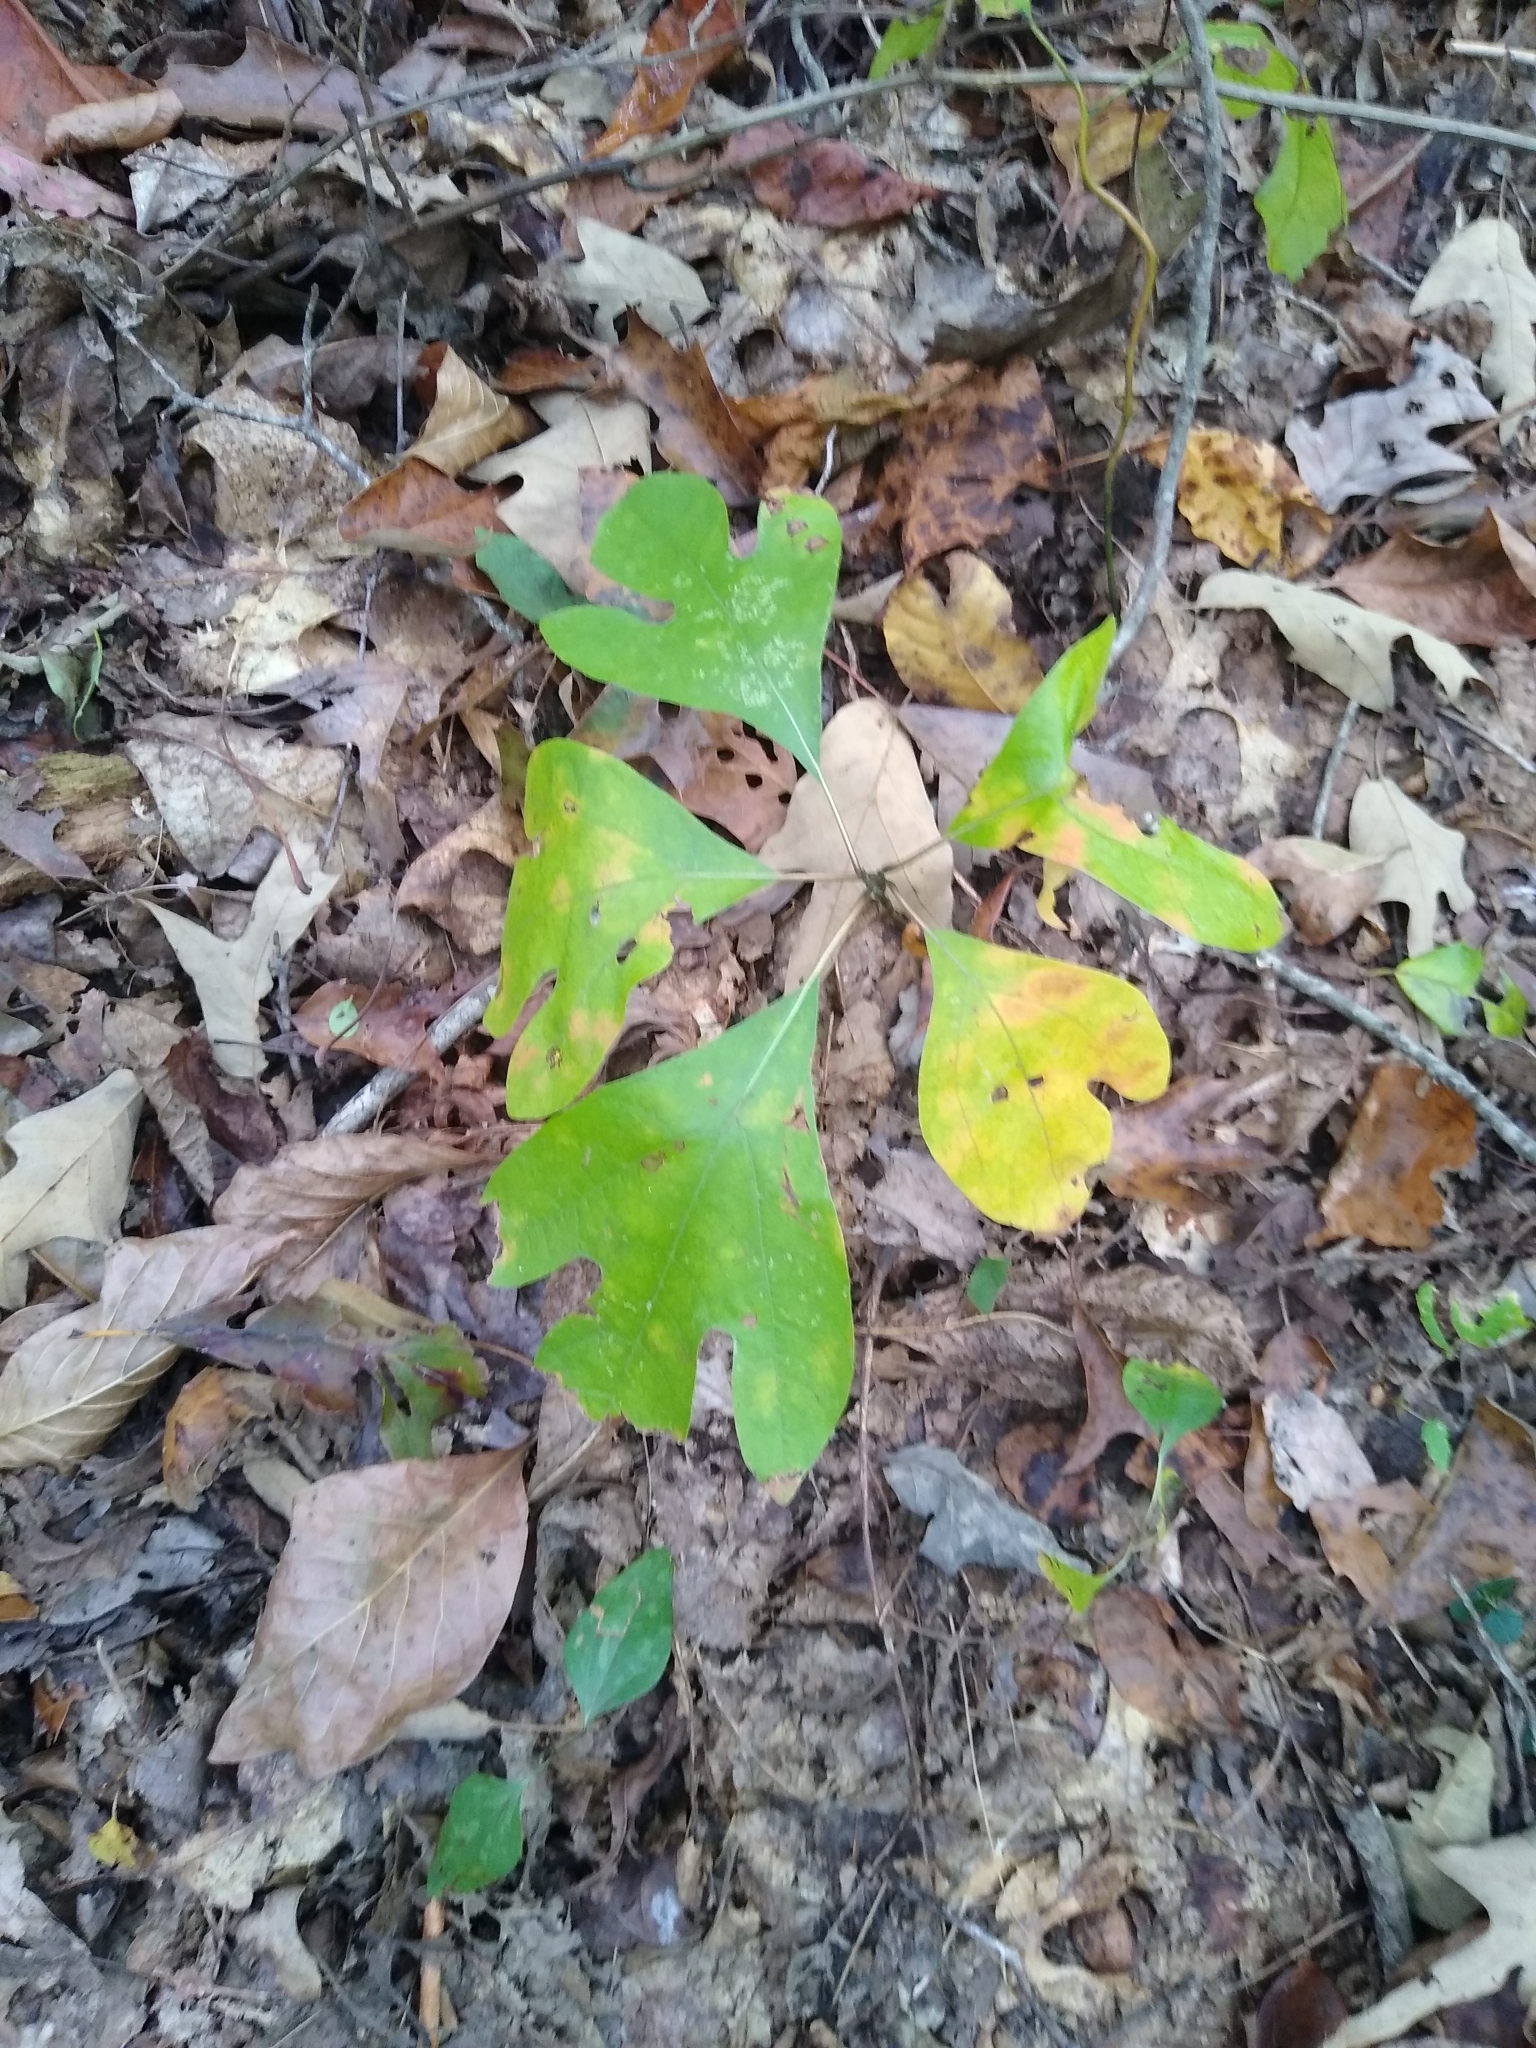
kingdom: Plantae
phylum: Tracheophyta
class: Magnoliopsida
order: Laurales
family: Lauraceae
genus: Sassafras
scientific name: Sassafras albidum
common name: Sassafras
